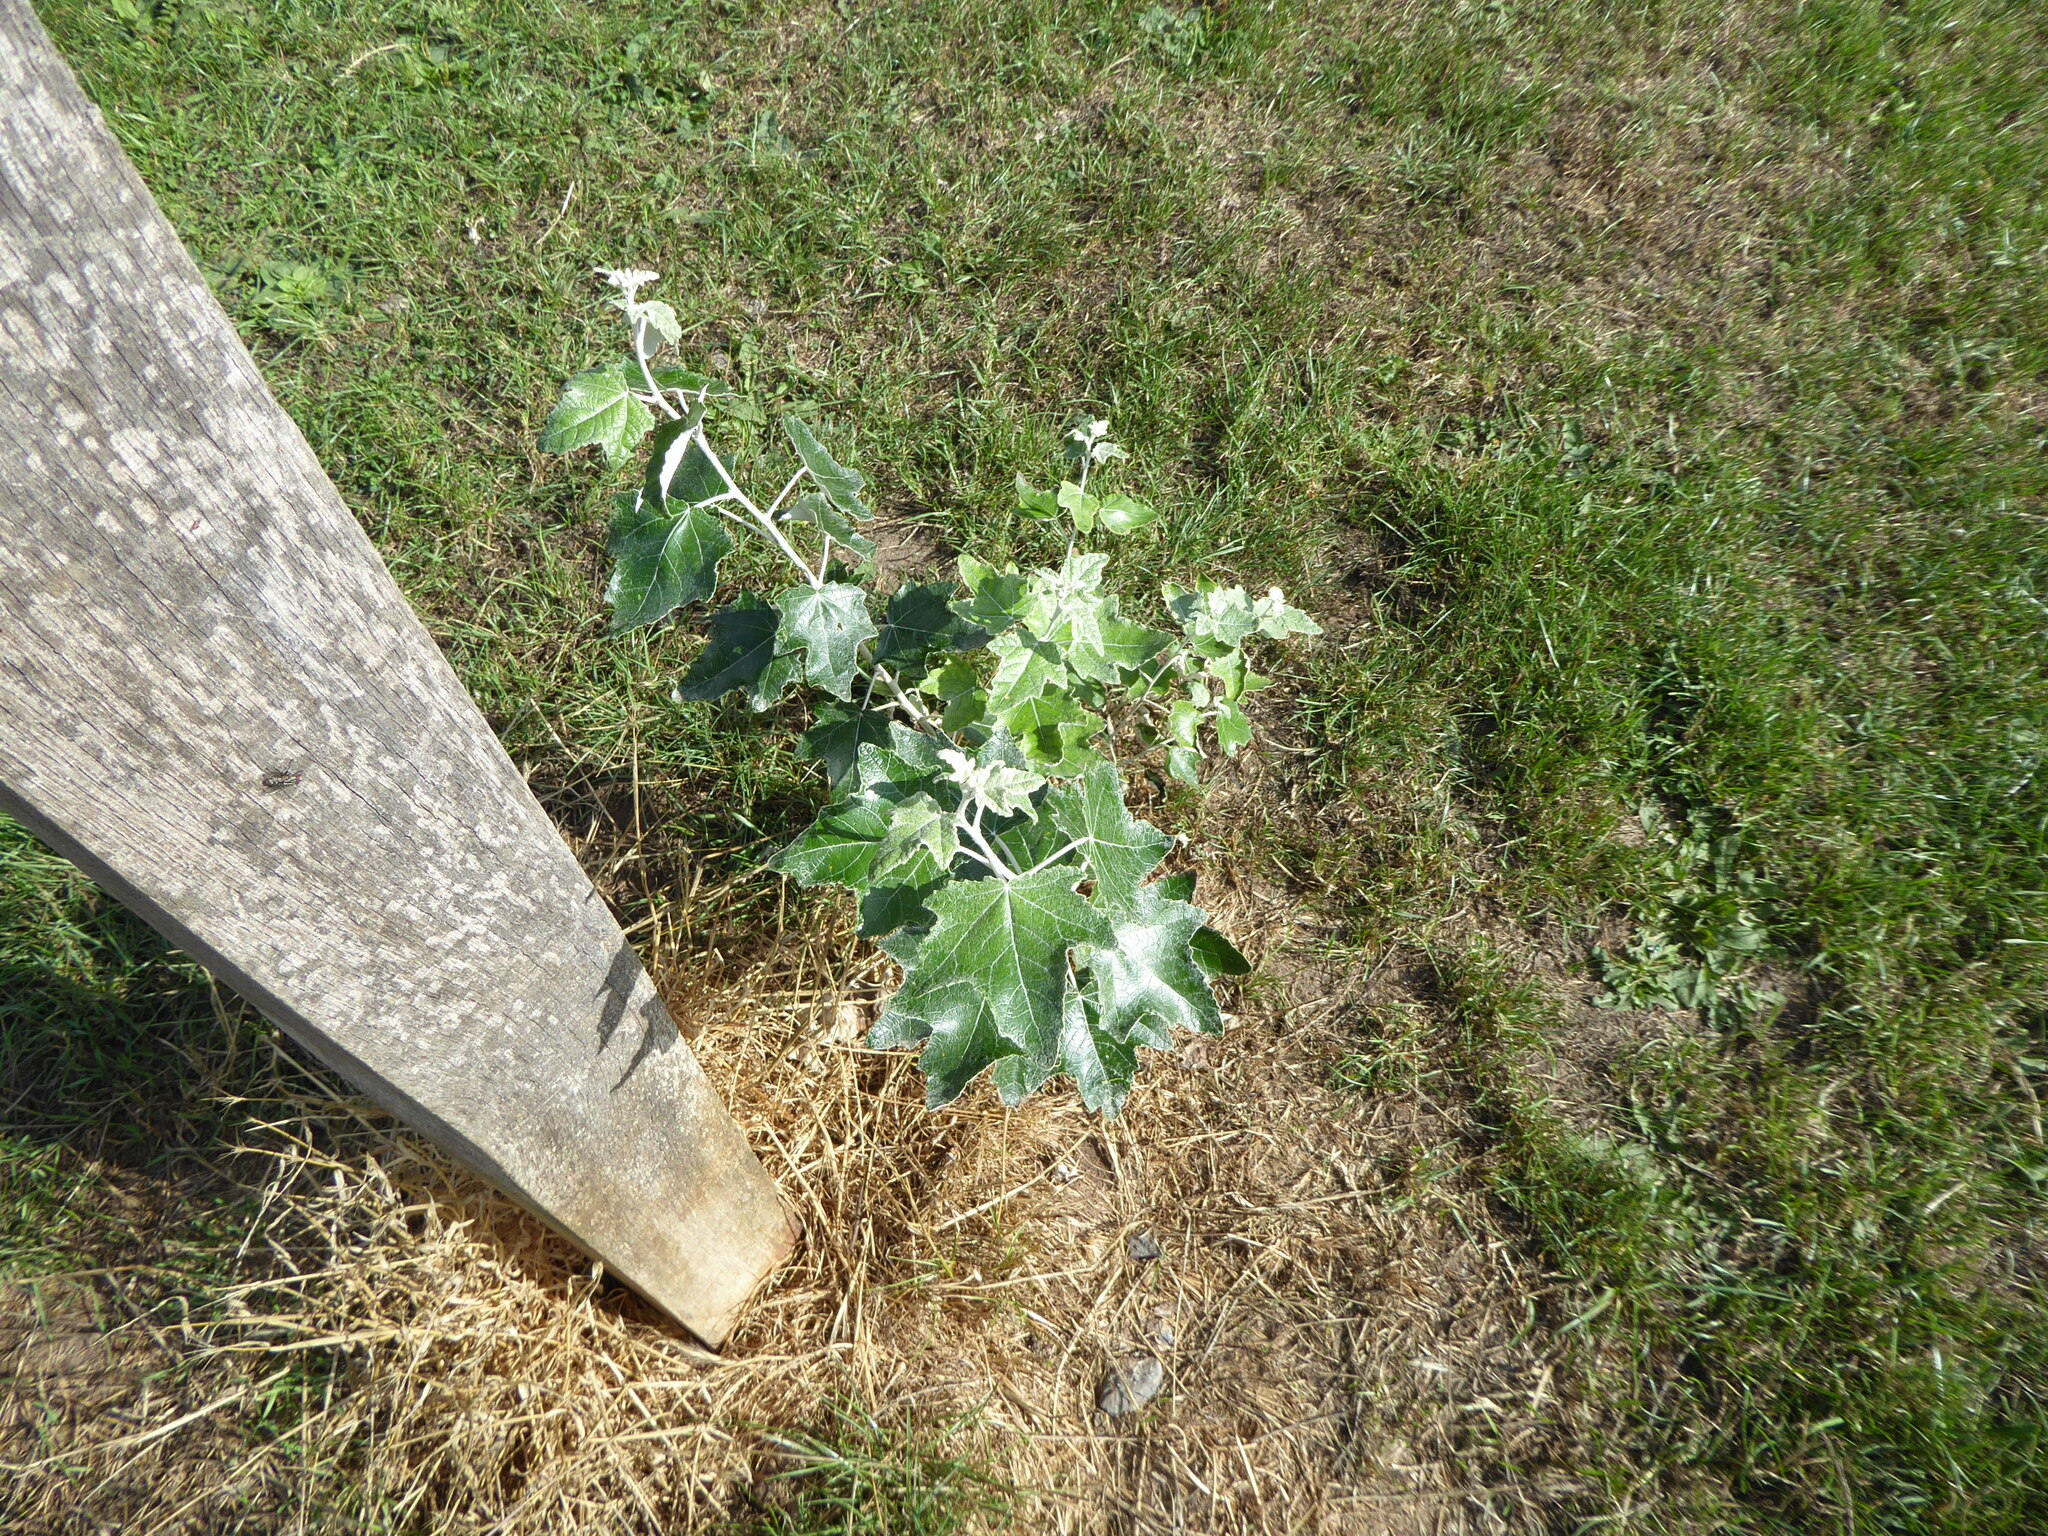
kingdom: Plantae
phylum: Tracheophyta
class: Magnoliopsida
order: Malpighiales
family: Salicaceae
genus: Populus
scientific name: Populus alba
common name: White poplar
